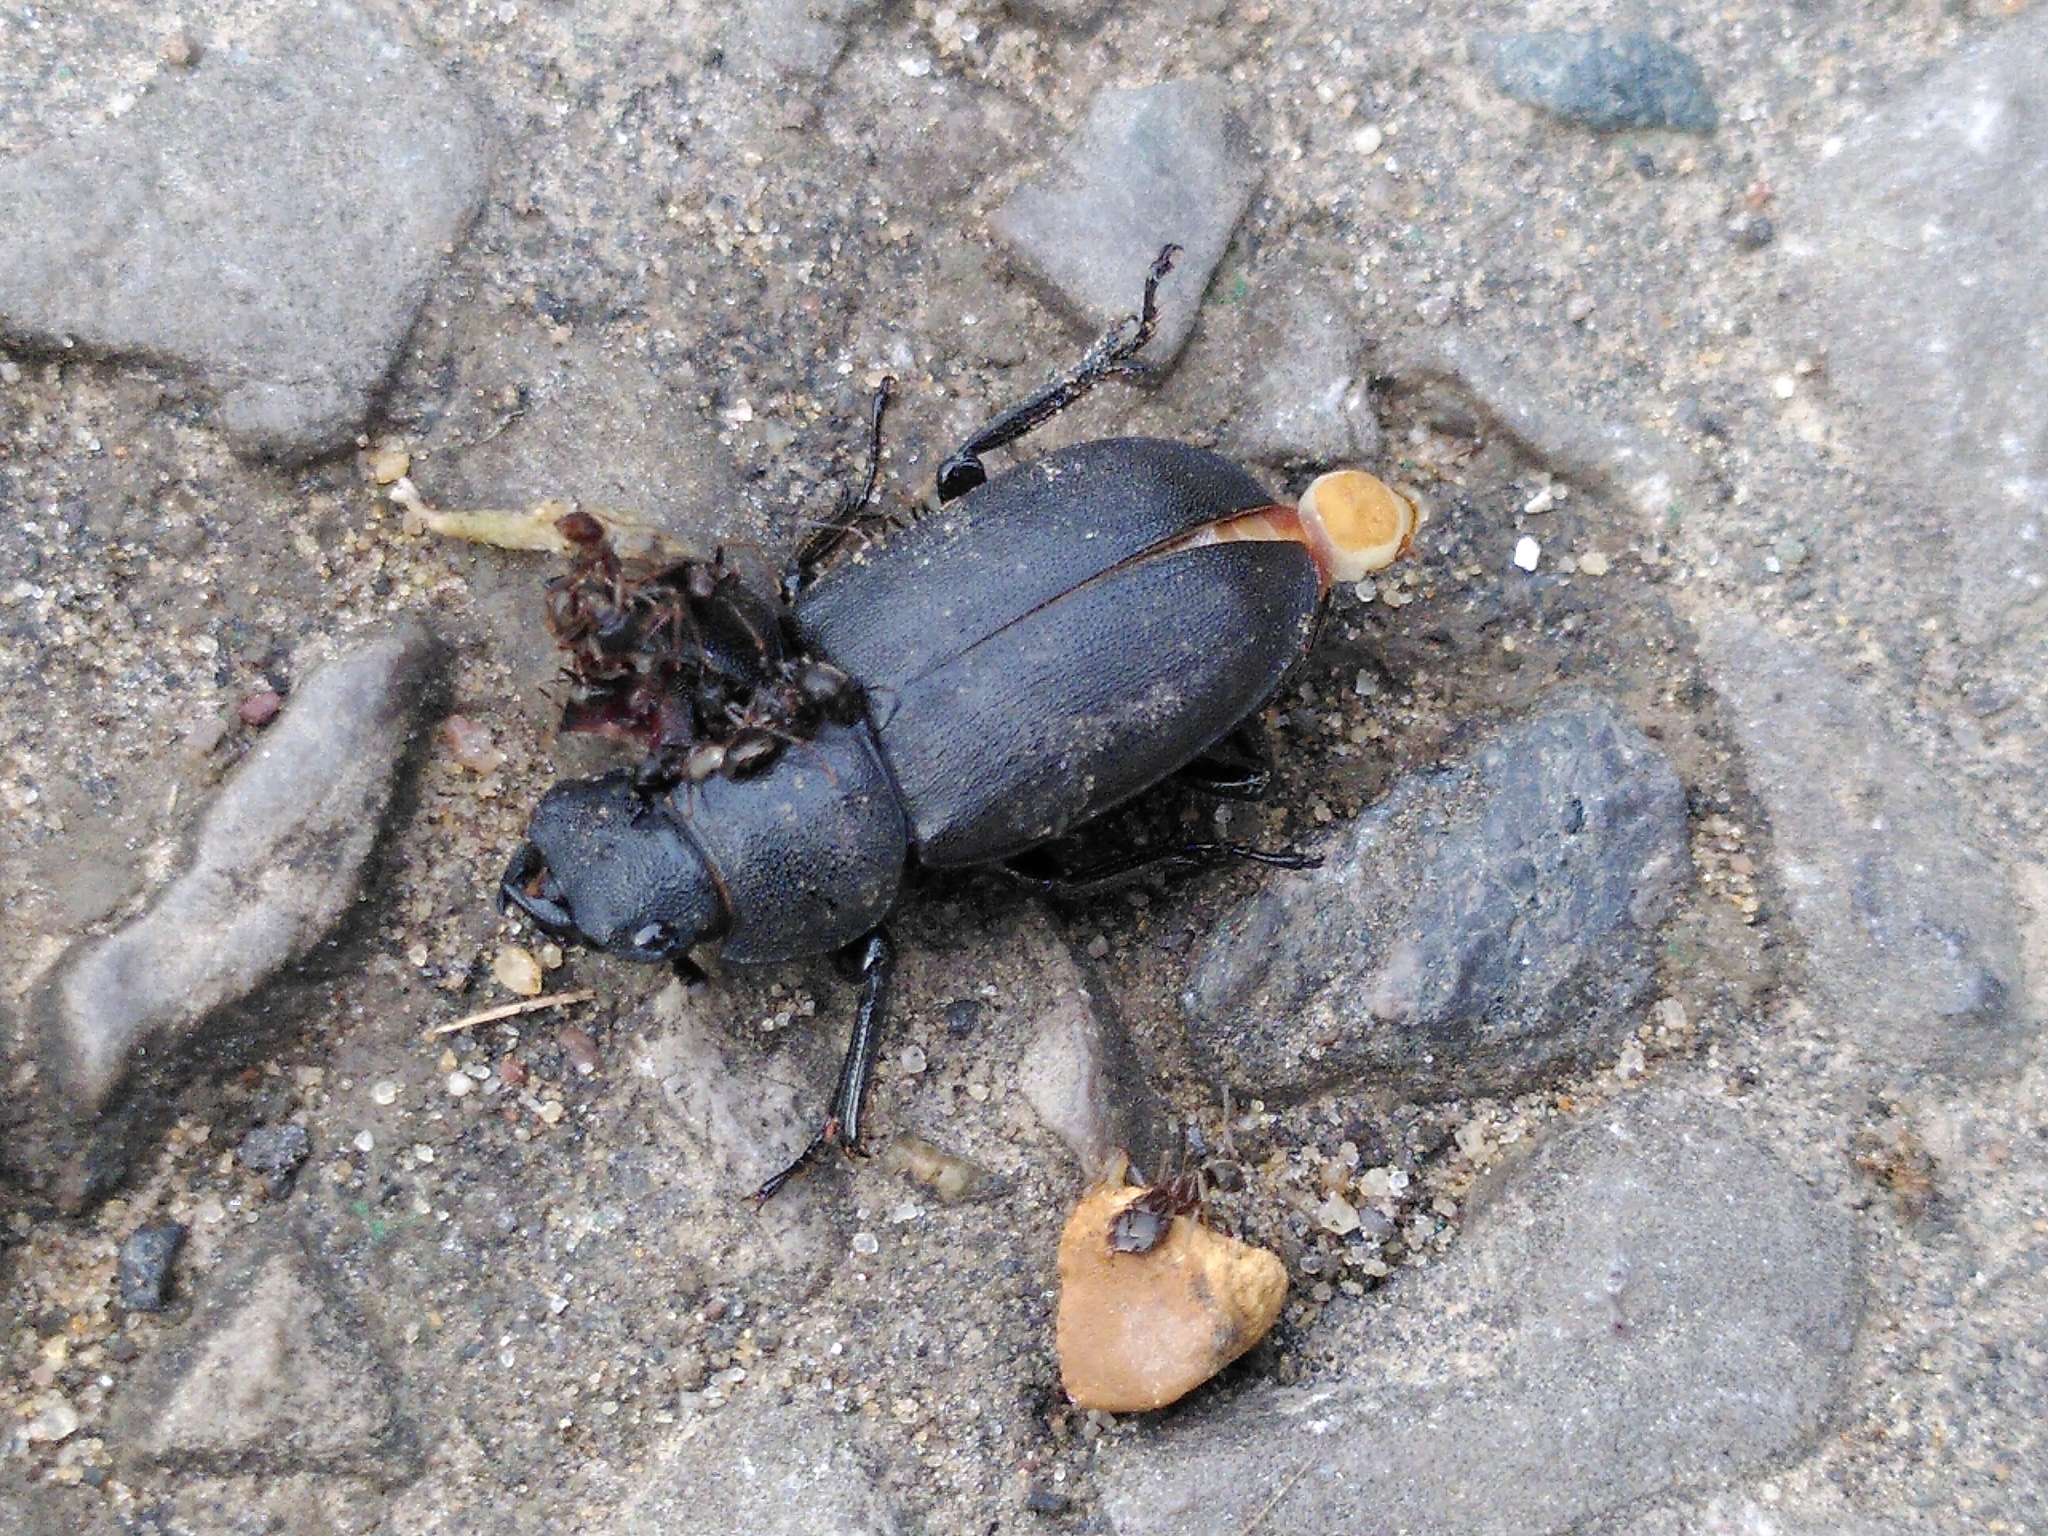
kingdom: Animalia
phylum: Arthropoda
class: Insecta
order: Coleoptera
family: Lucanidae
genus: Dorcus
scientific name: Dorcus parallelipipedus
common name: Lesser stag beetle
